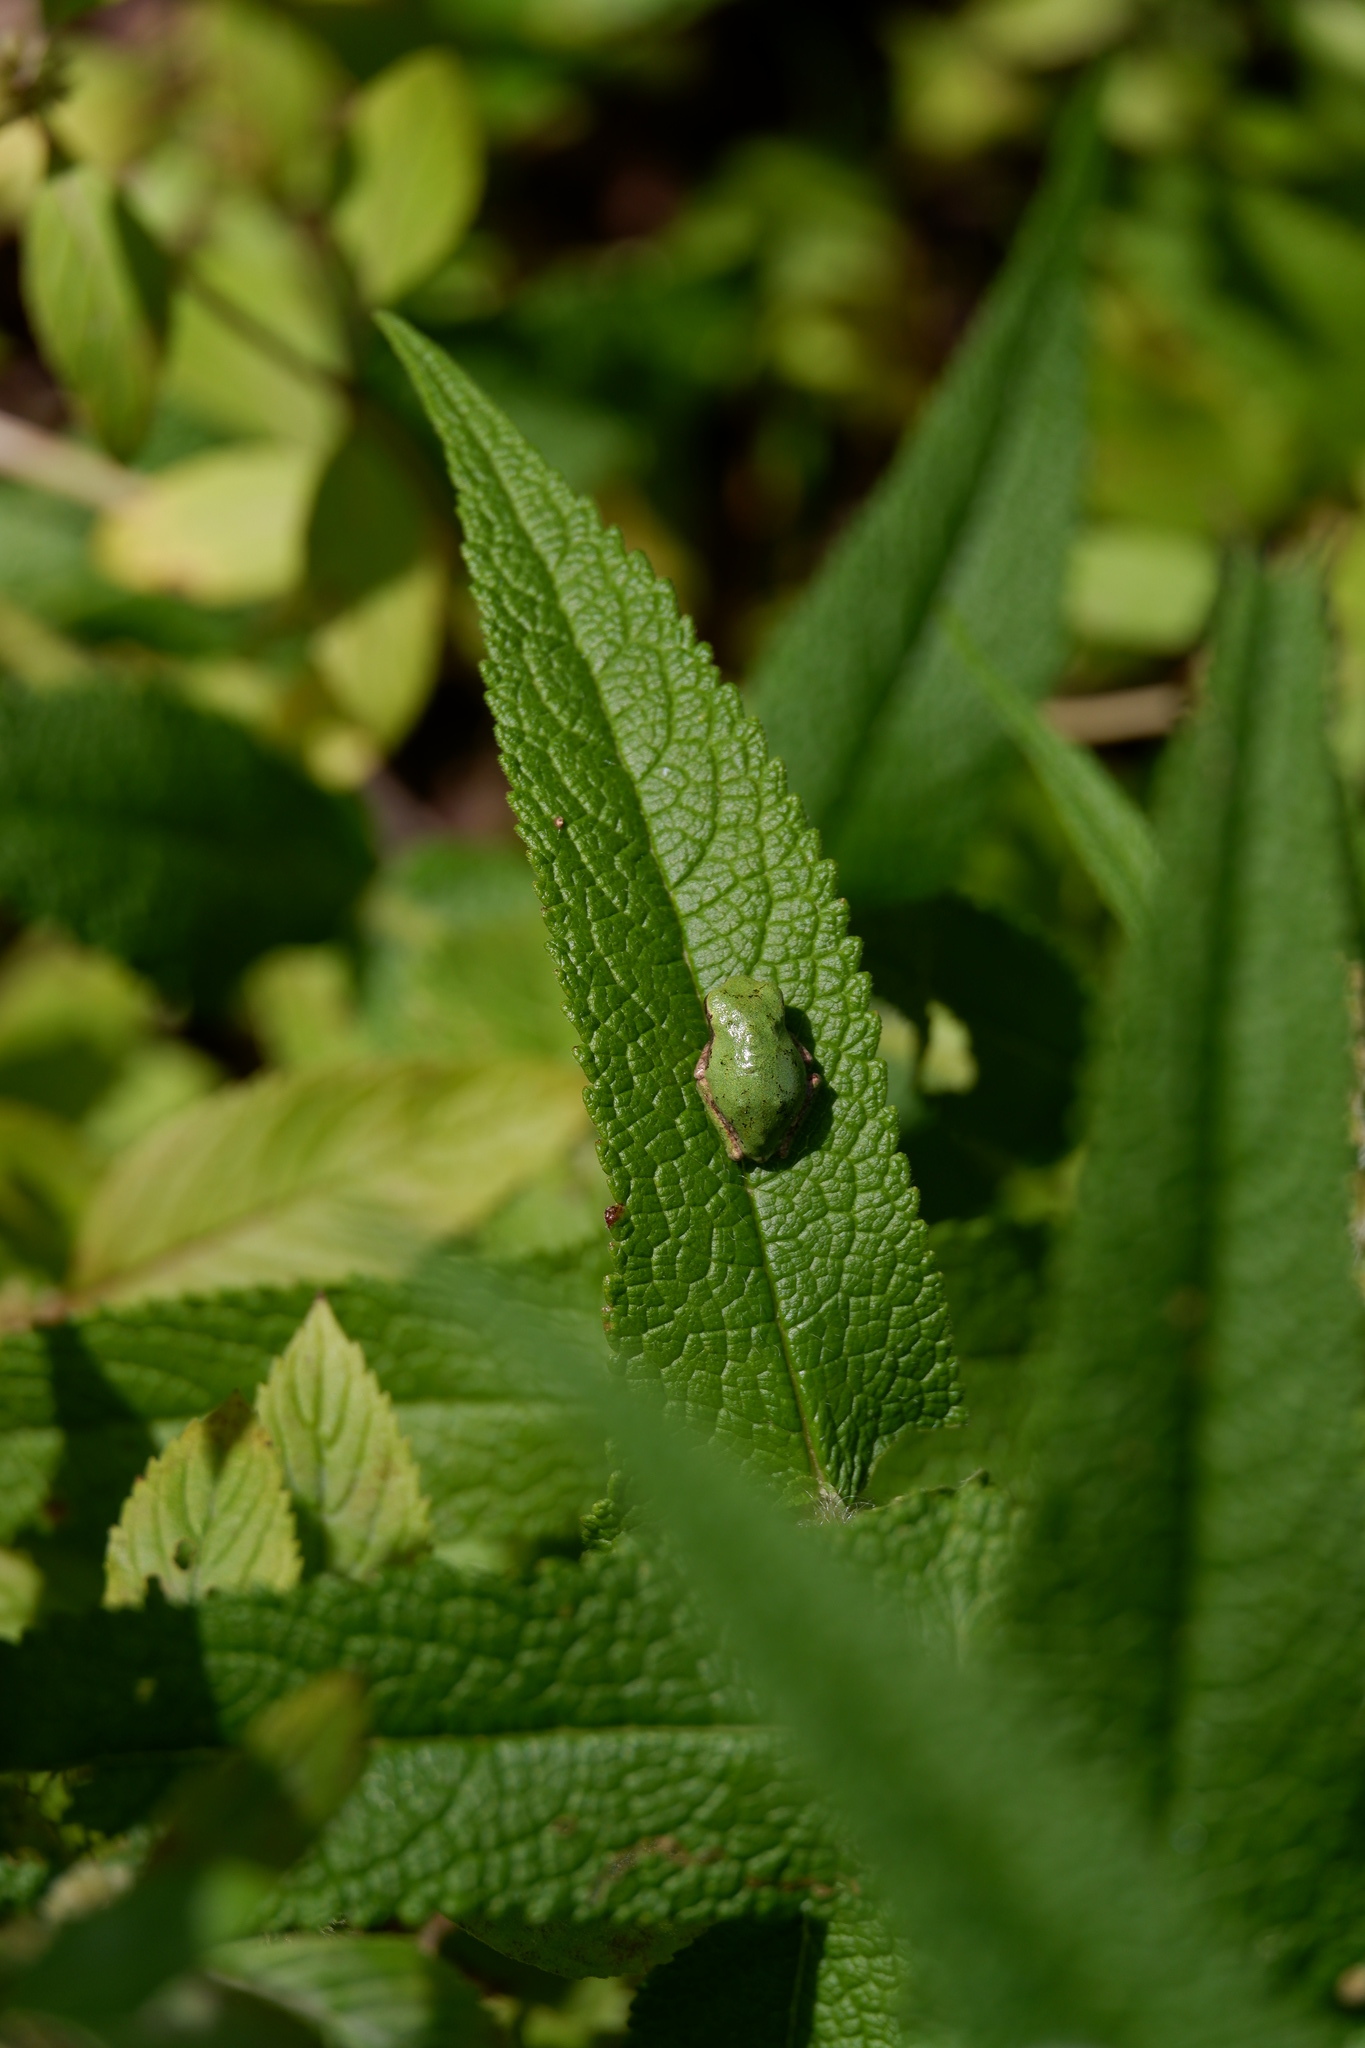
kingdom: Animalia
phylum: Chordata
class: Amphibia
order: Anura
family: Hylidae
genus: Dryophytes
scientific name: Dryophytes versicolor
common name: Gray treefrog
